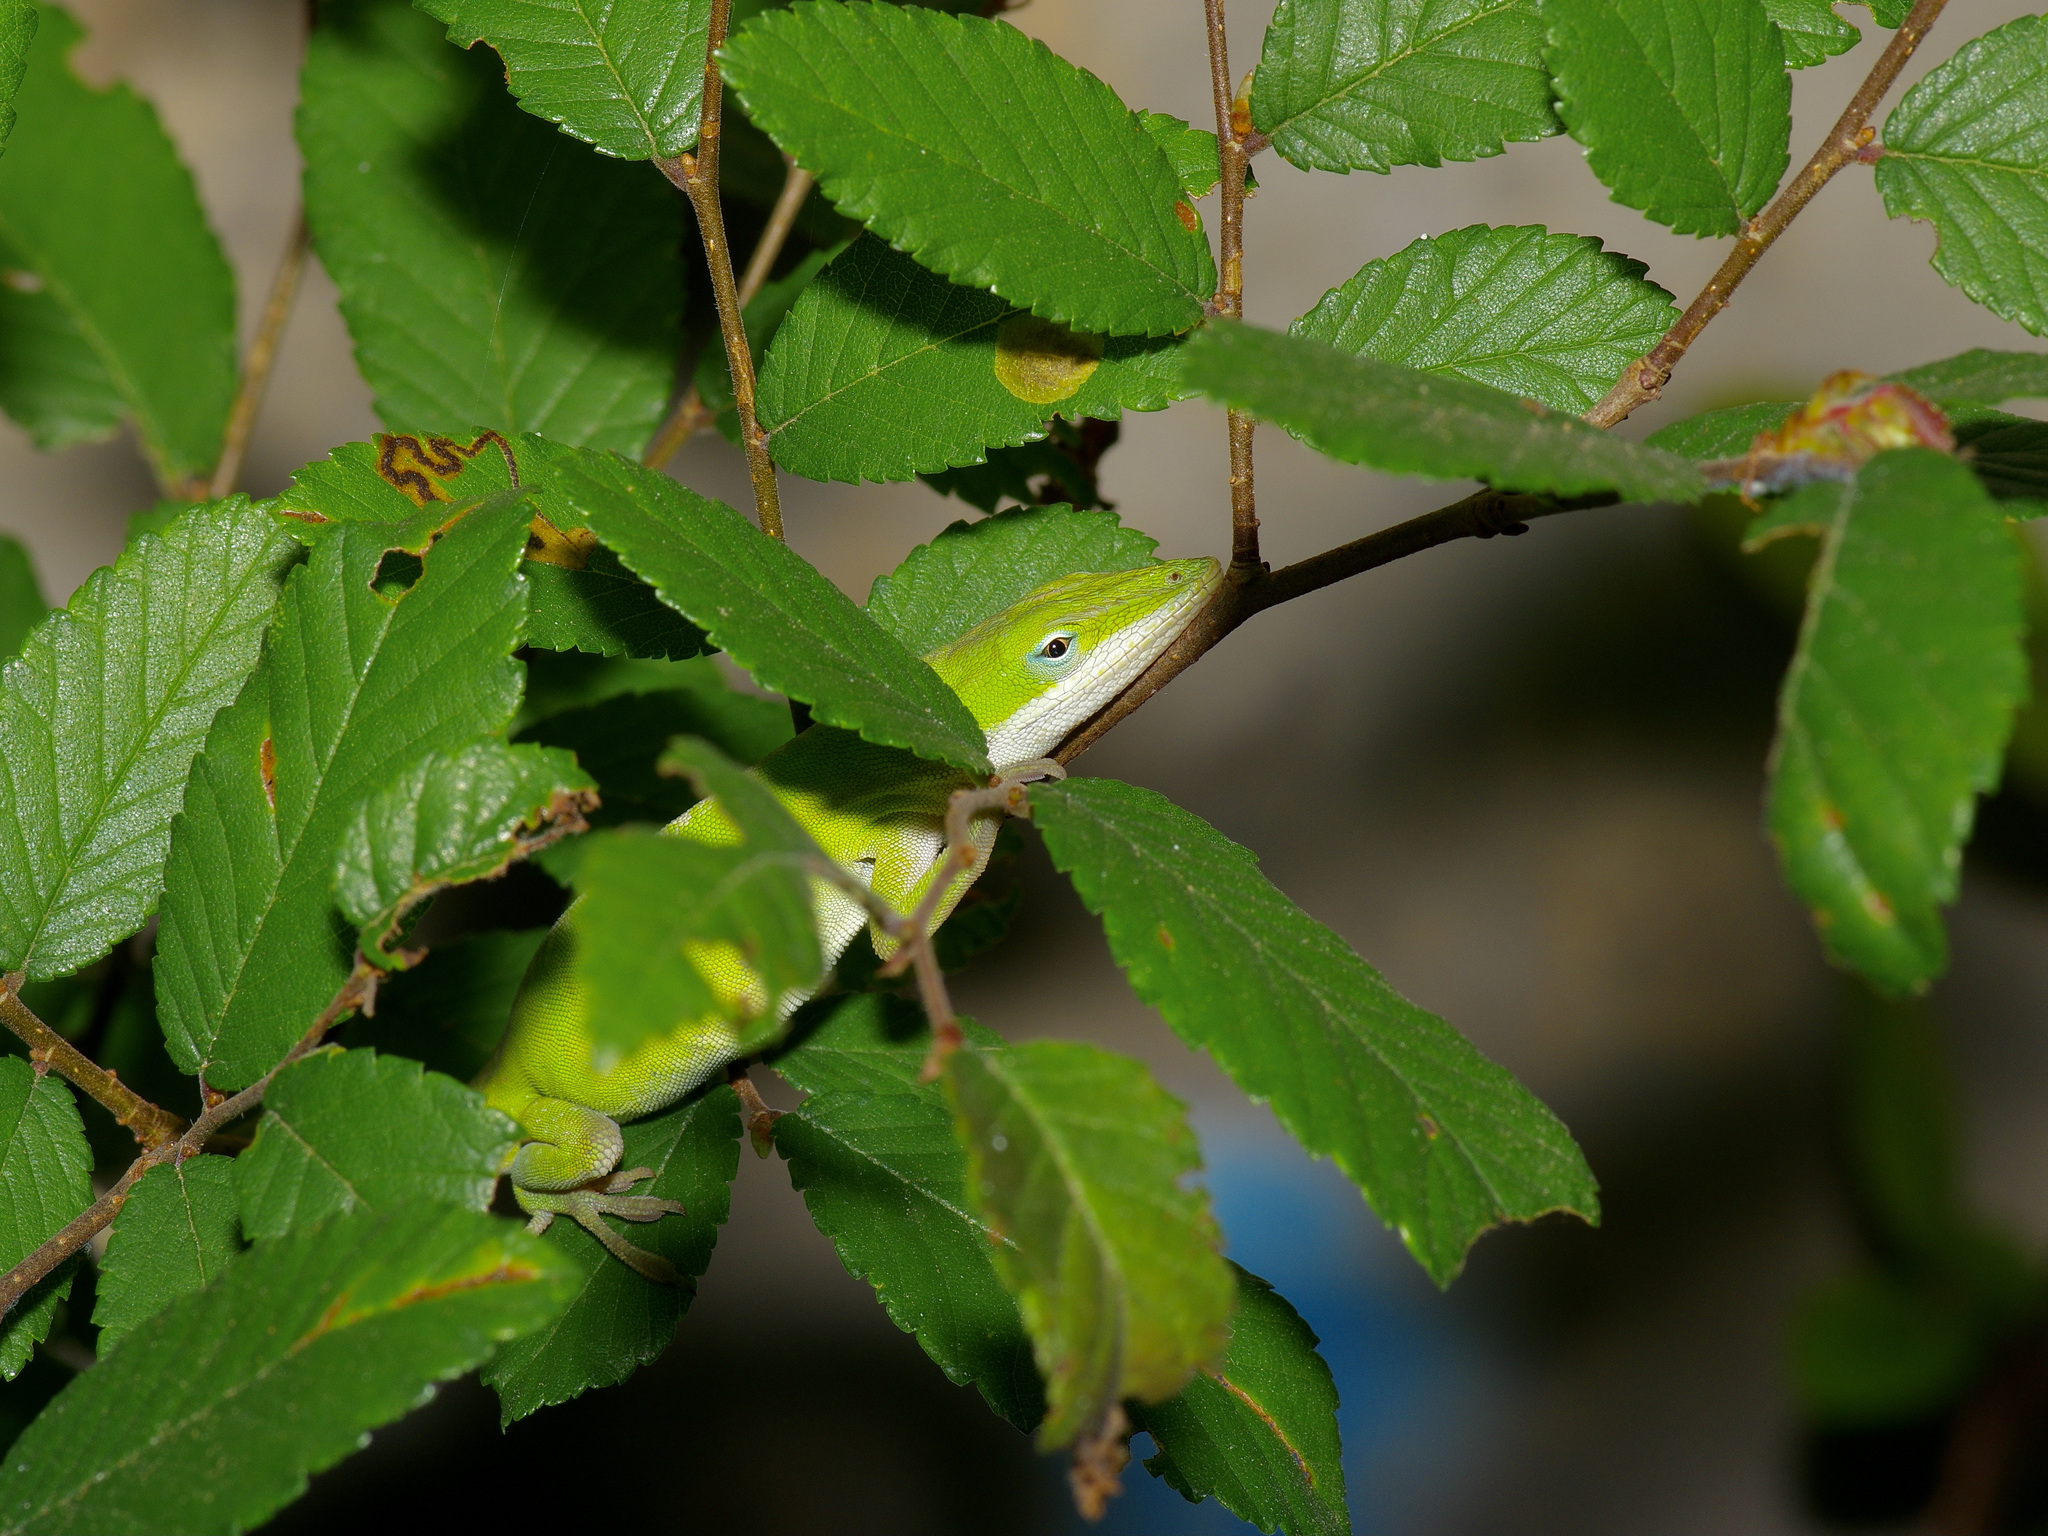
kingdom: Animalia
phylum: Chordata
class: Squamata
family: Dactyloidae
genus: Anolis
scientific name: Anolis carolinensis
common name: Green anole
